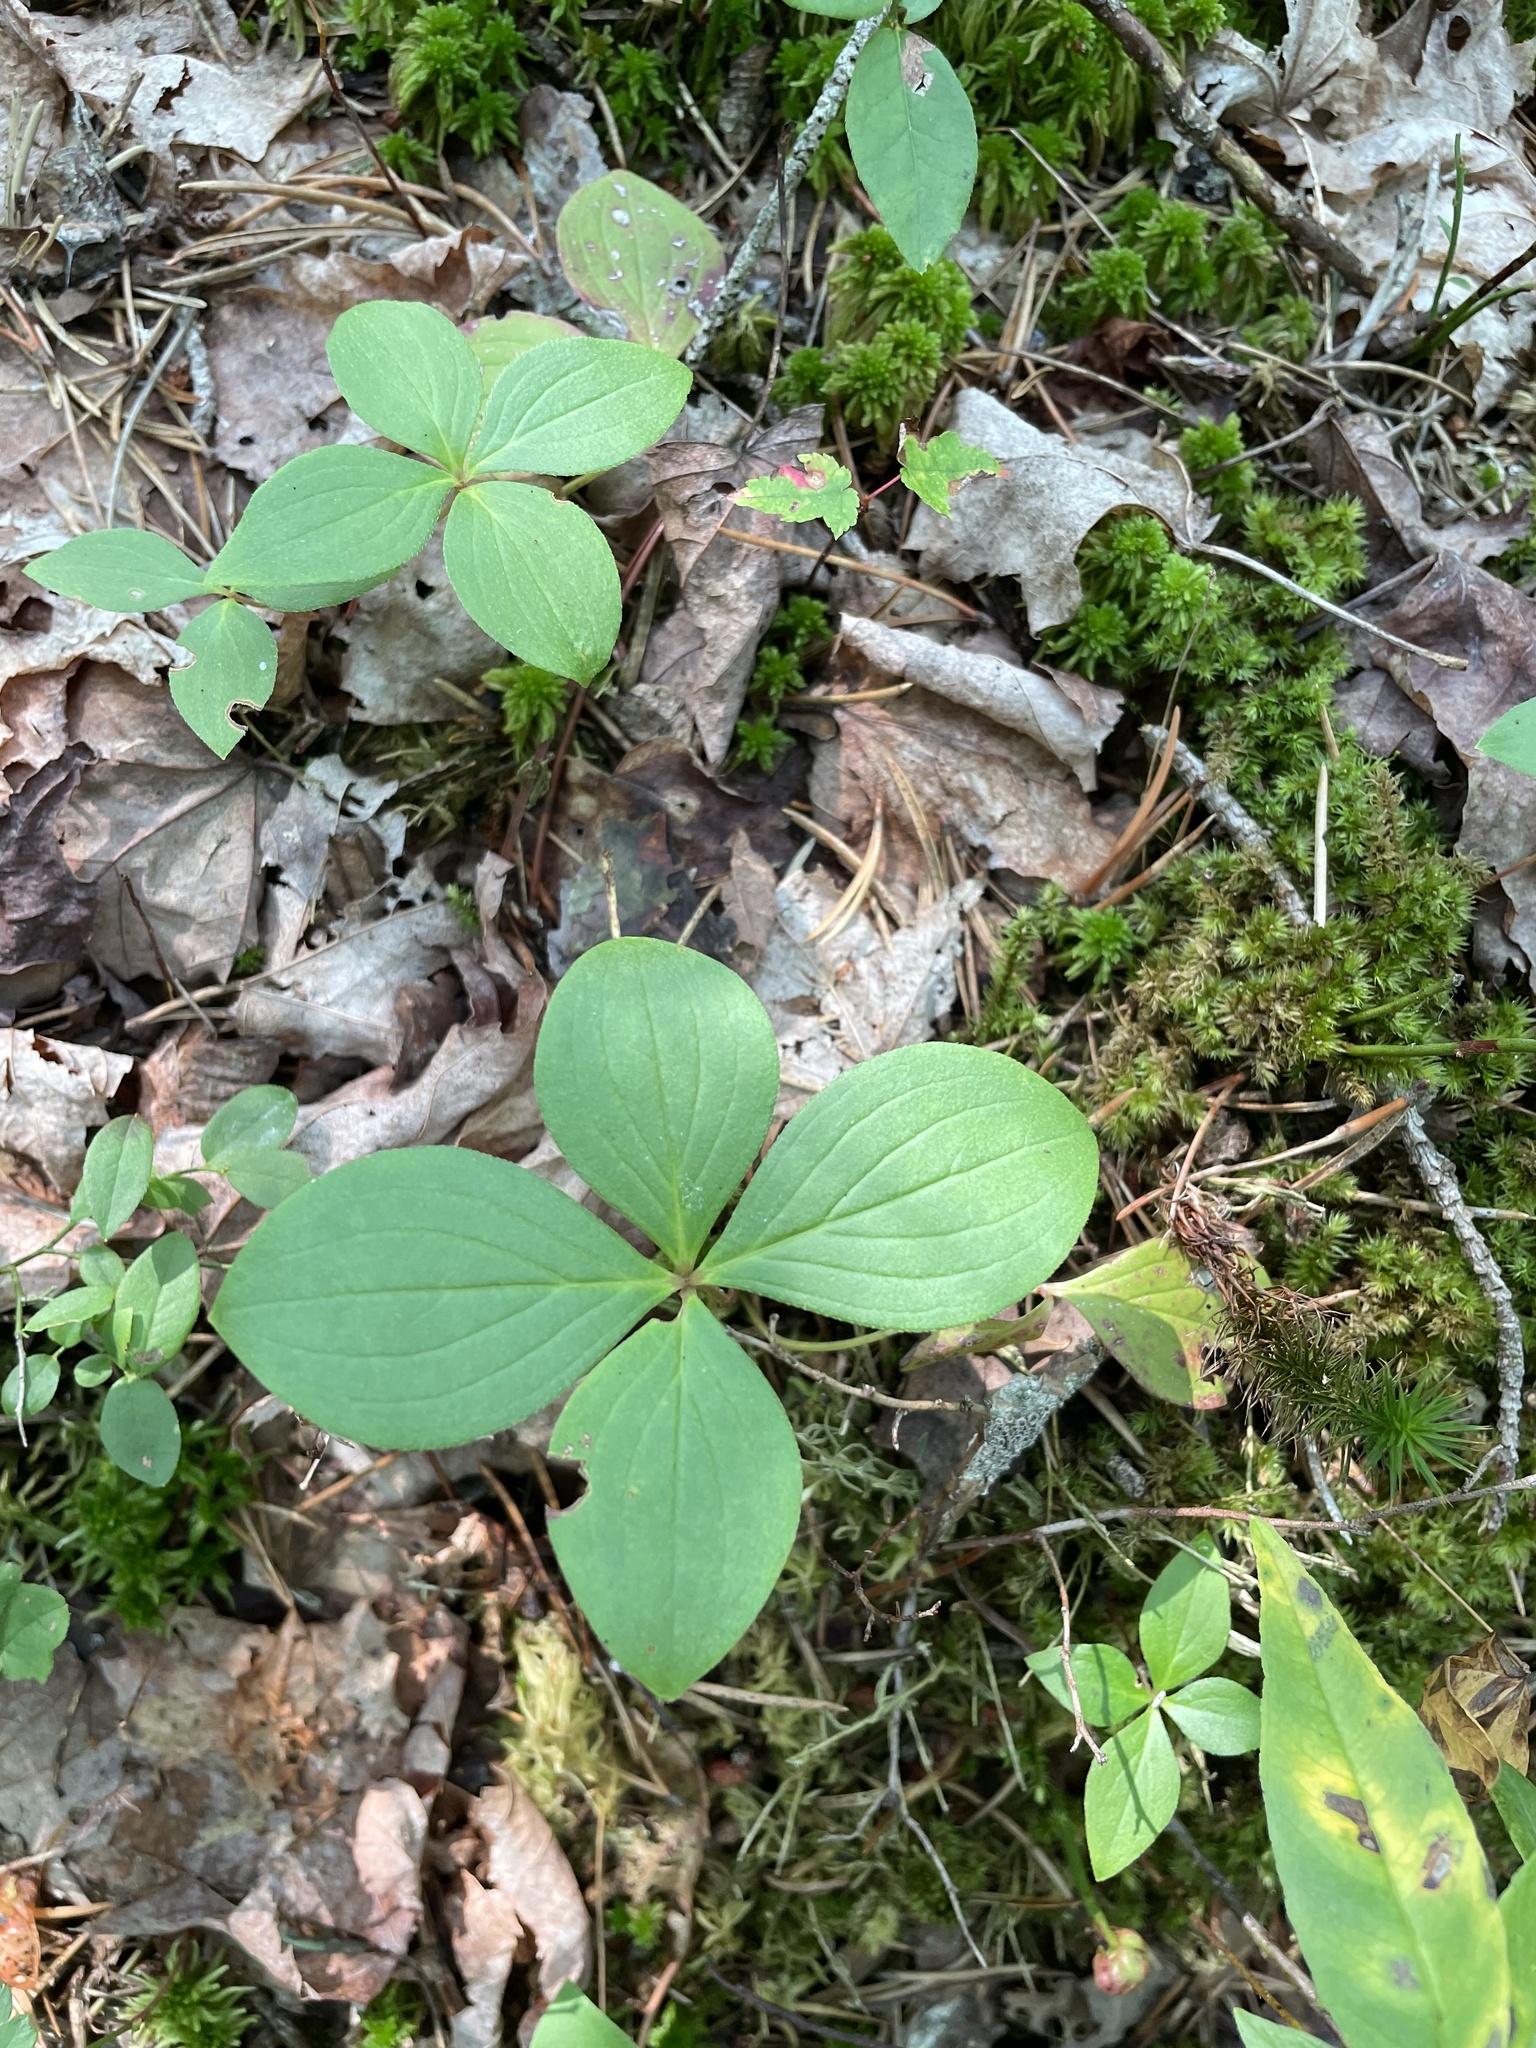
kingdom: Plantae
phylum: Tracheophyta
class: Magnoliopsida
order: Cornales
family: Cornaceae
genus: Cornus
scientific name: Cornus canadensis
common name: Creeping dogwood
